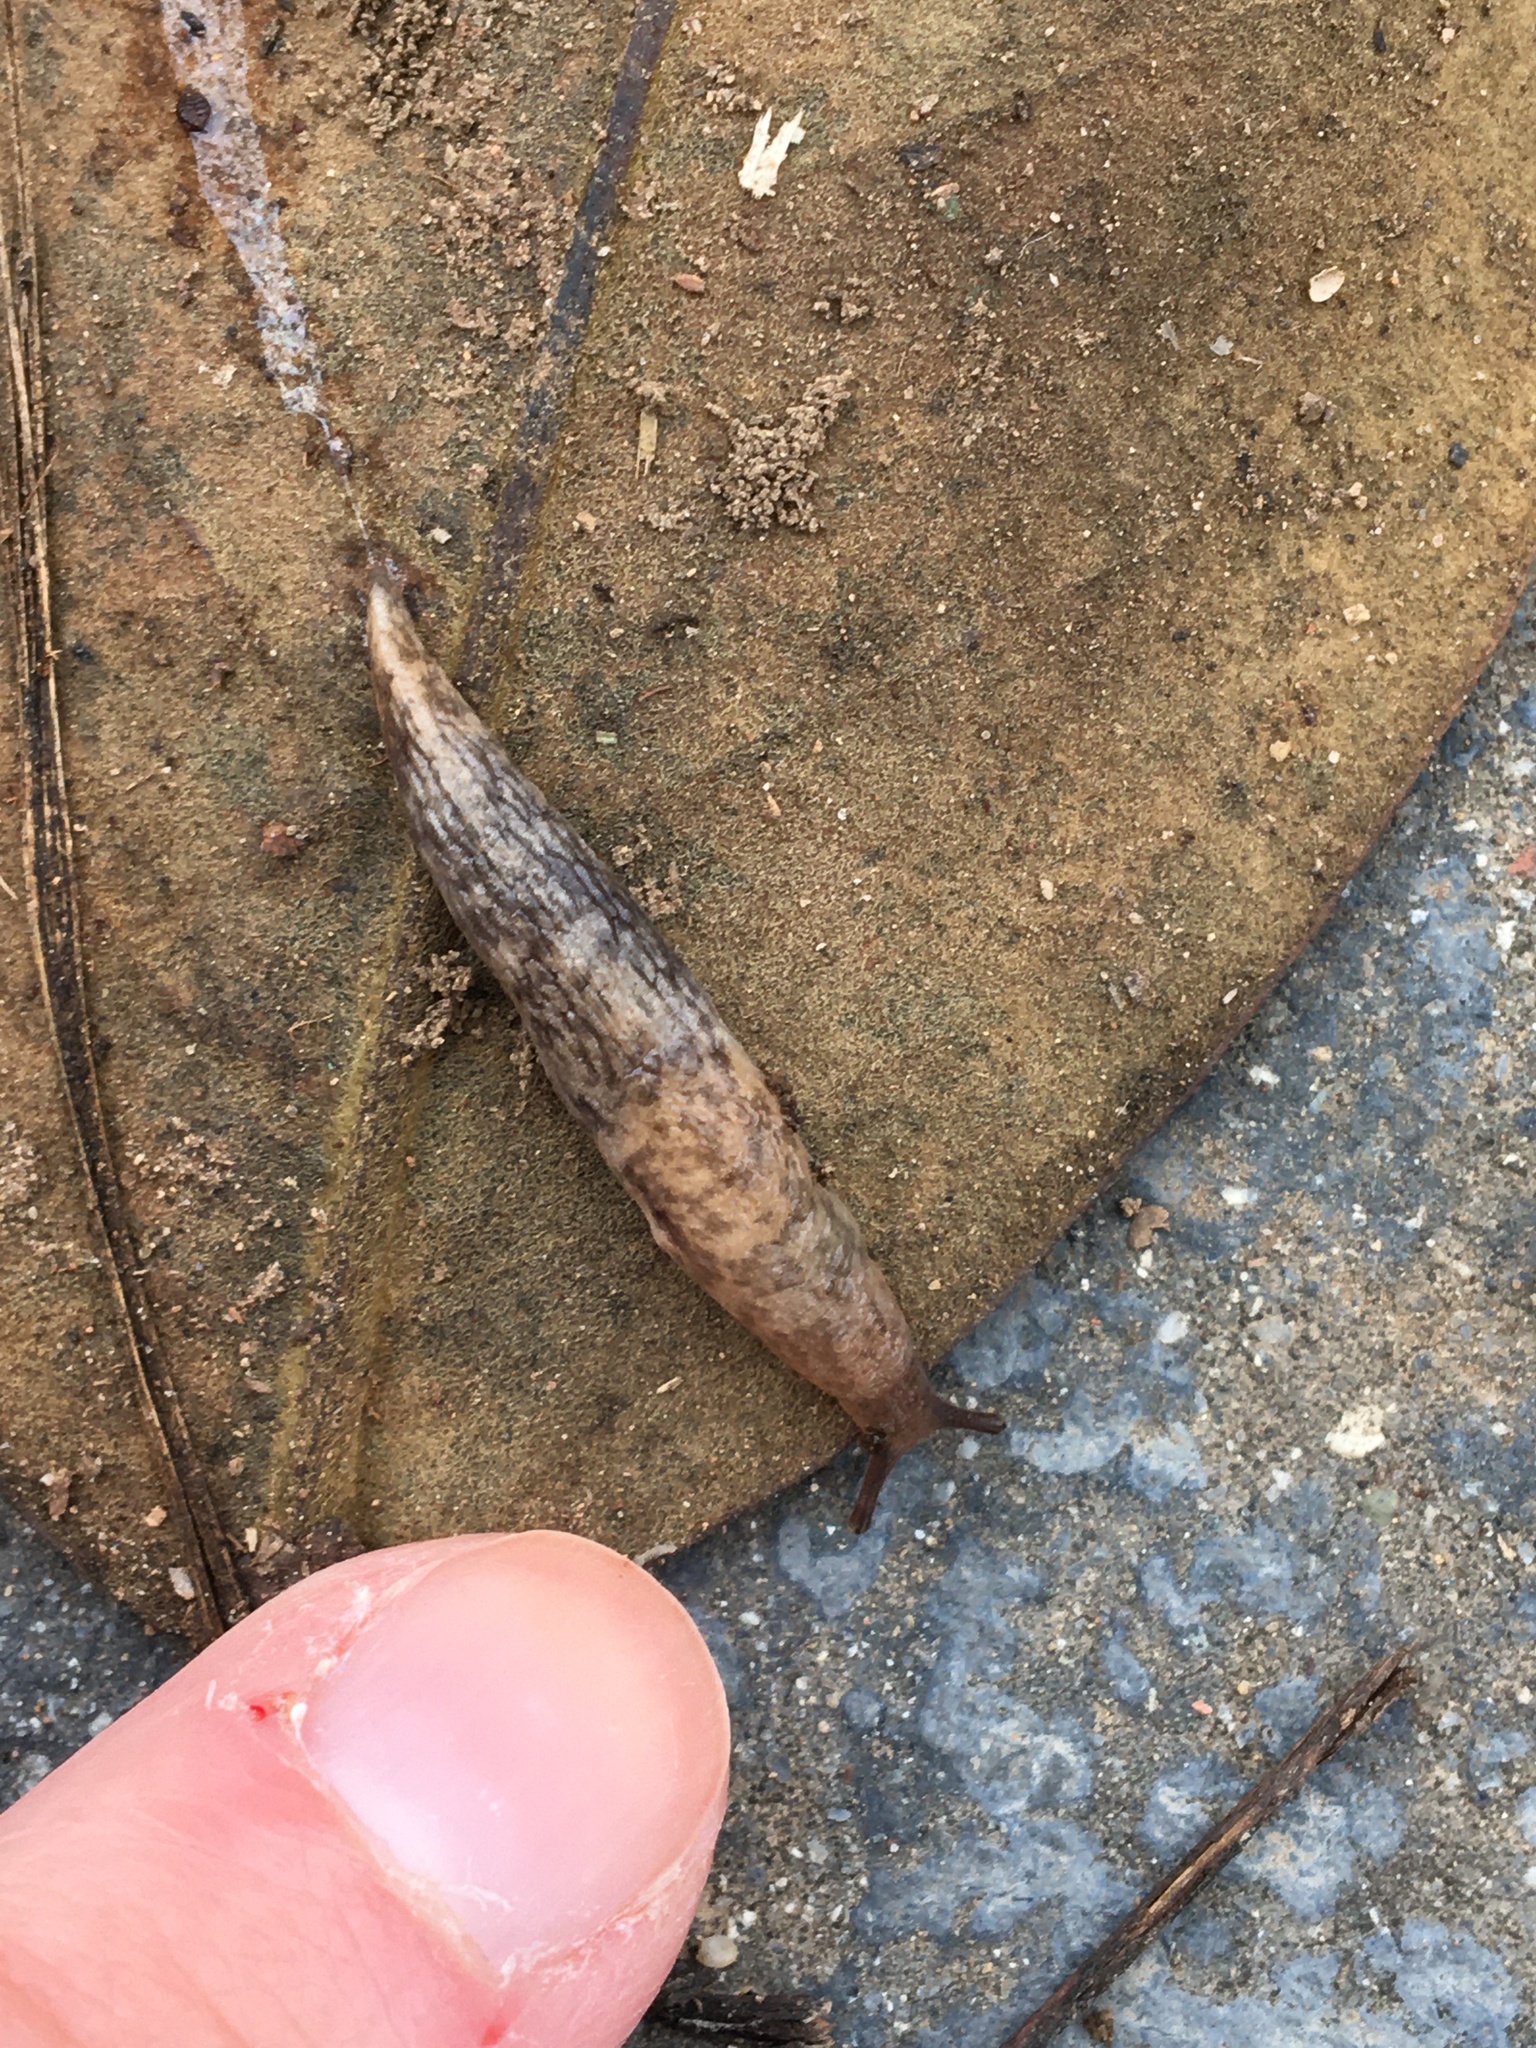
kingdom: Animalia
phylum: Mollusca
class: Gastropoda
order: Stylommatophora
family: Agriolimacidae
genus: Deroceras
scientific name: Deroceras reticulatum
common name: Gray field slug
